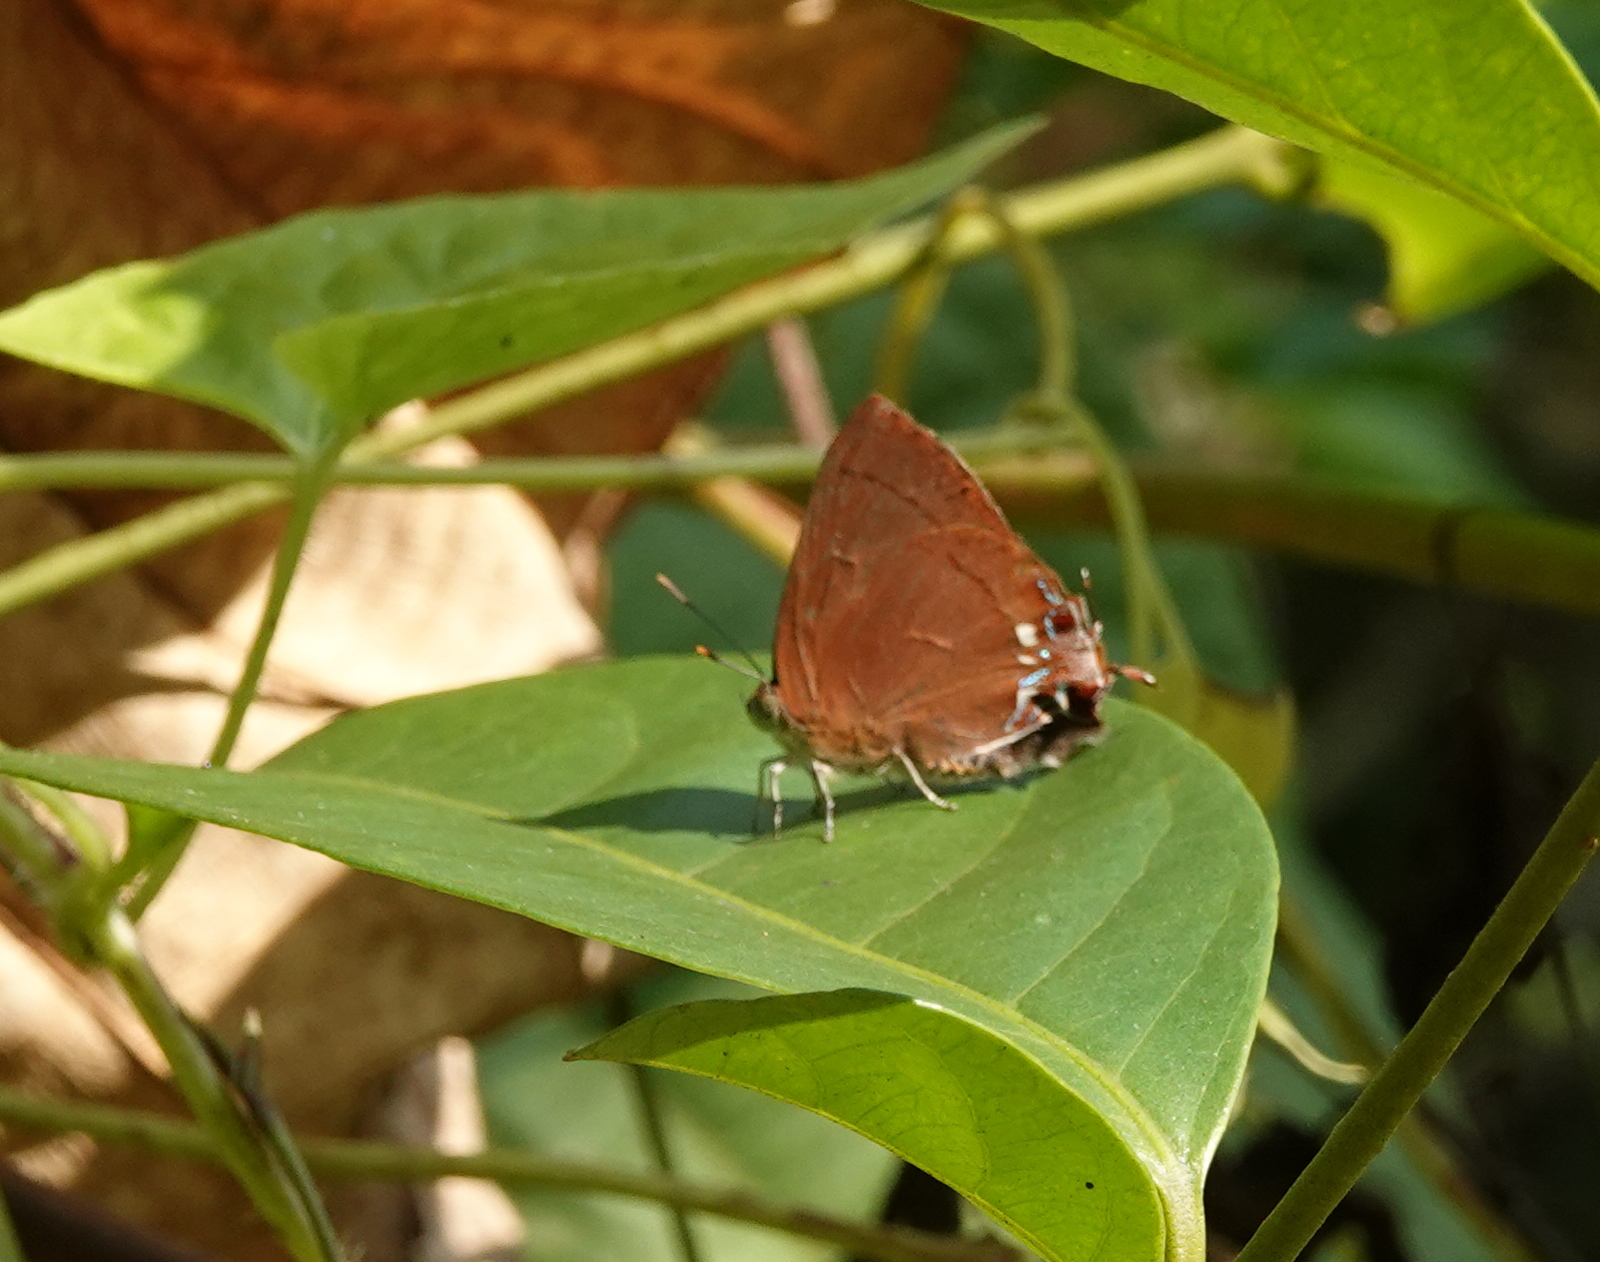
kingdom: Animalia
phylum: Arthropoda
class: Insecta
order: Lepidoptera
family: Lycaenidae
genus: Remelana
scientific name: Remelana jangala
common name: Chocolate royal
